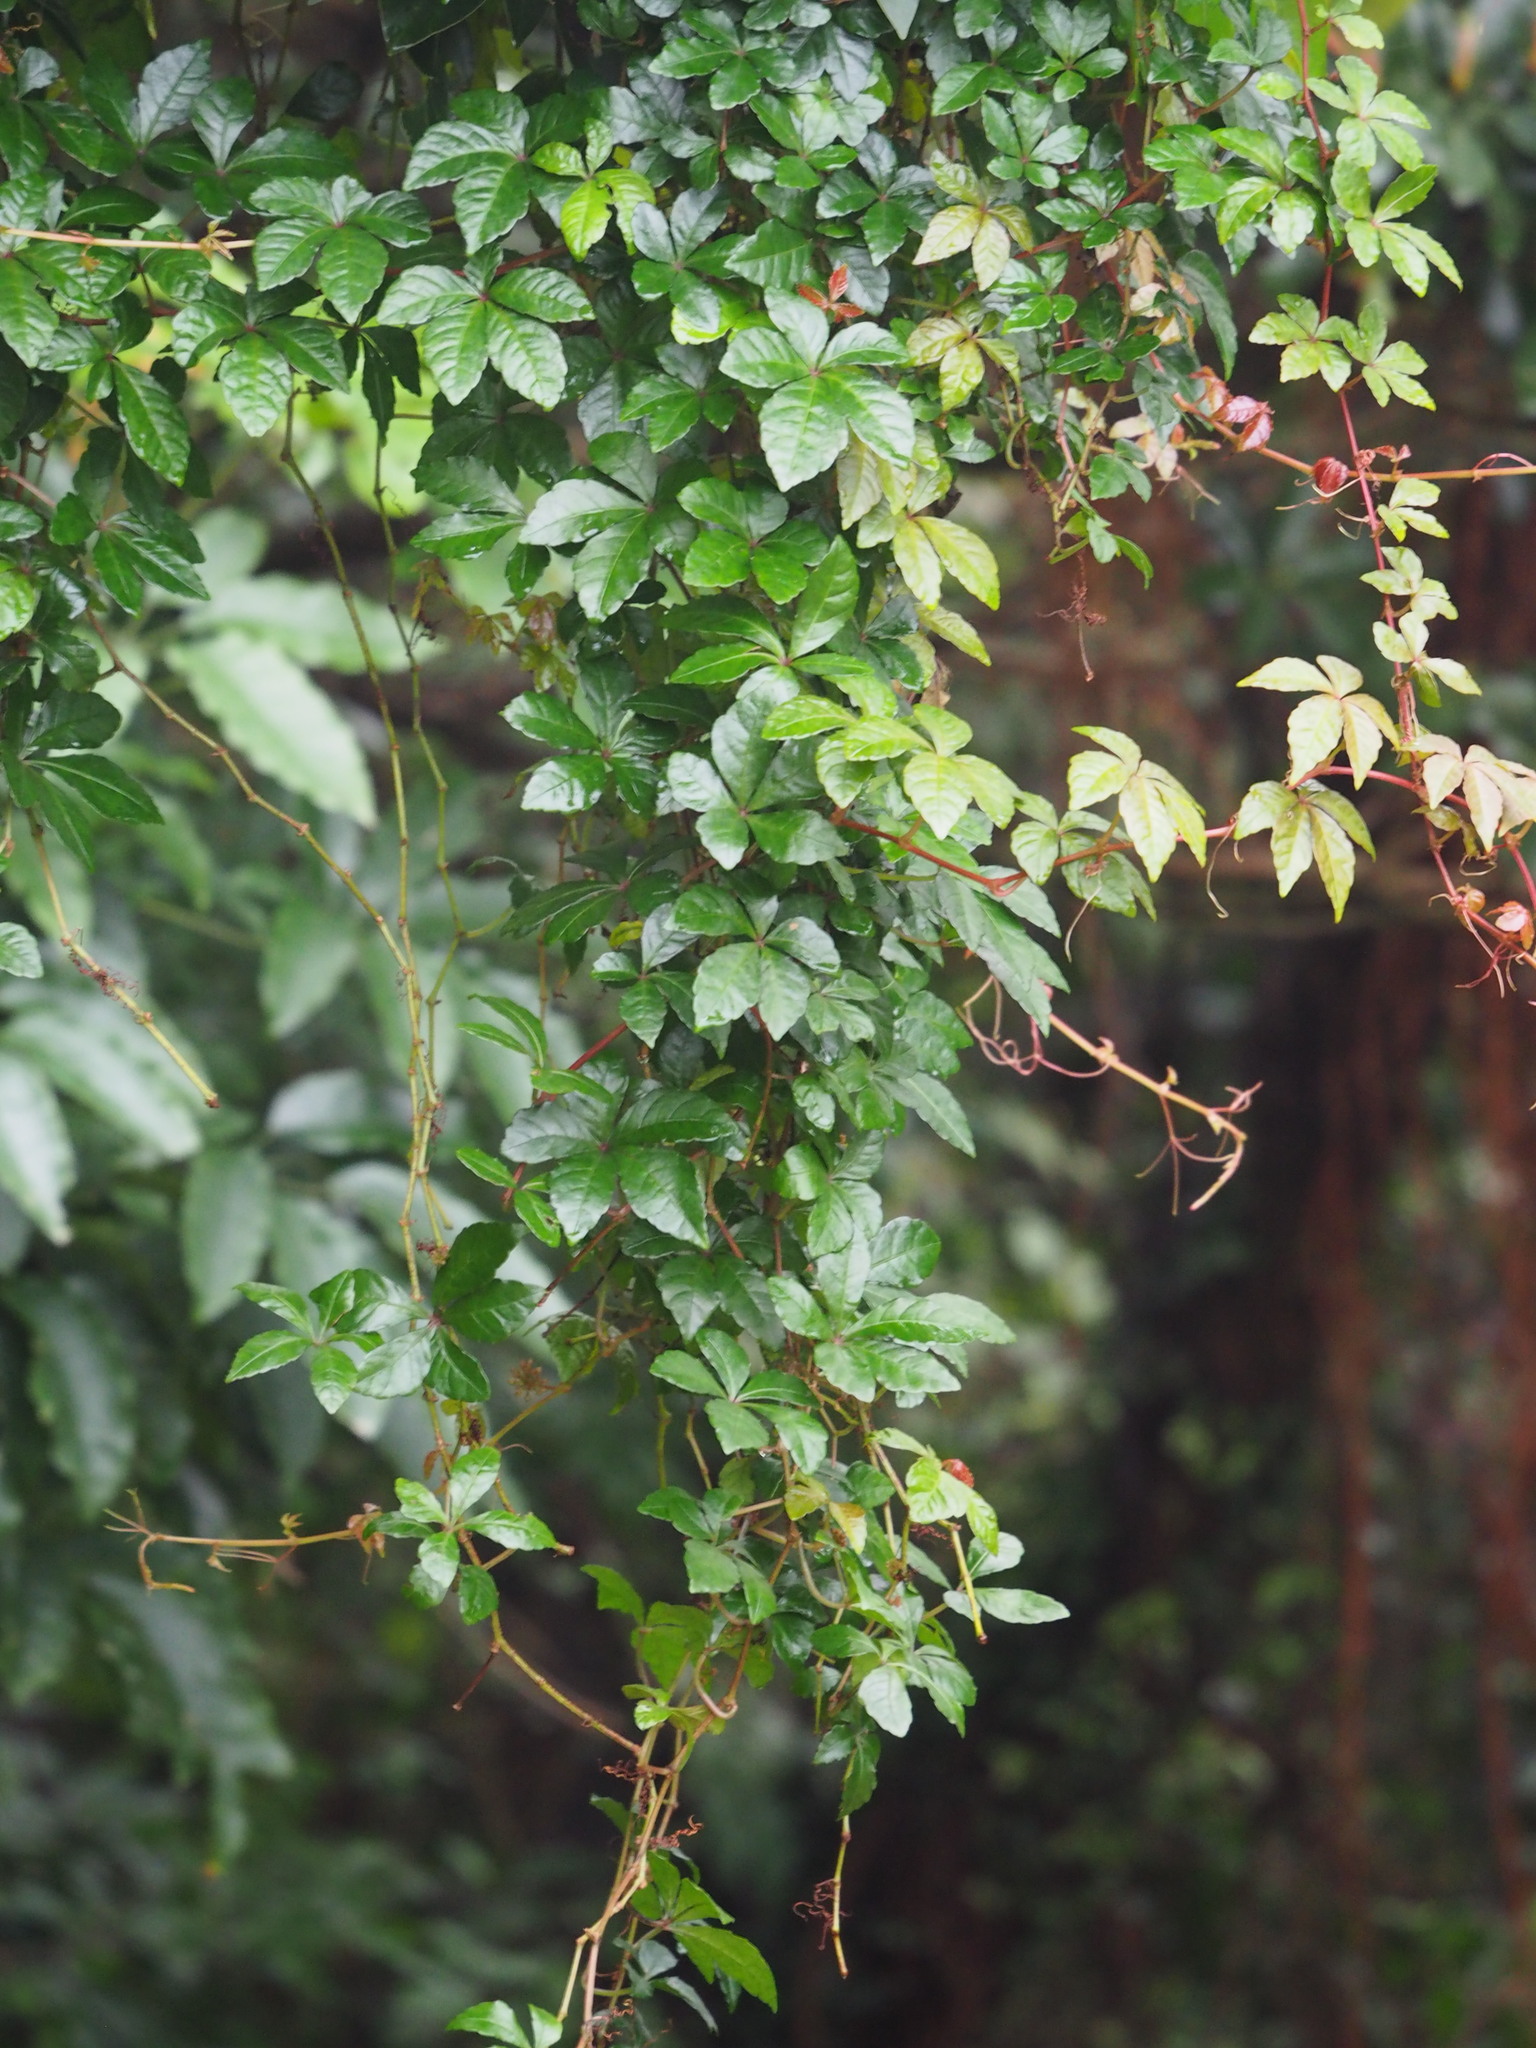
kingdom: Plantae
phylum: Tracheophyta
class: Magnoliopsida
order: Vitales
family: Vitaceae
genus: Tetrastigma
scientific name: Tetrastigma obtectum
